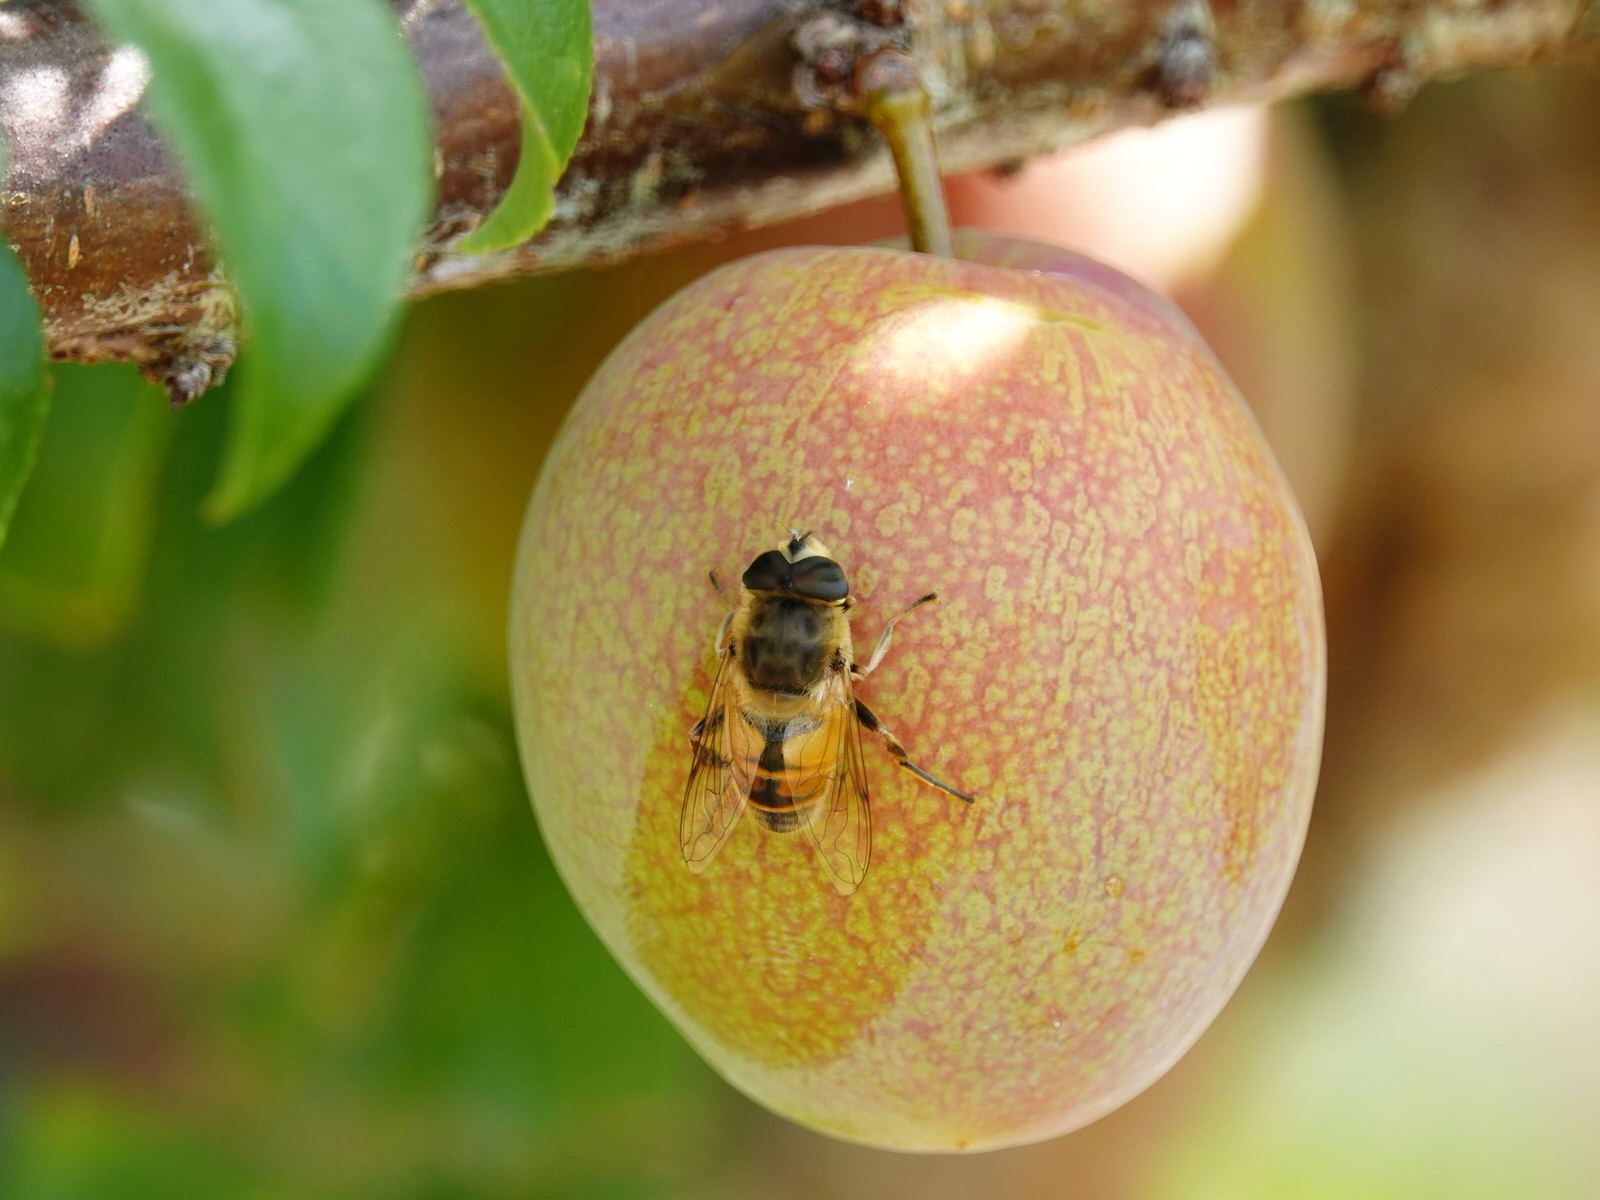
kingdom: Animalia
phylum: Arthropoda
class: Insecta
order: Diptera
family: Syrphidae
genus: Eristalis
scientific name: Eristalis tenax
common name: Drone fly
